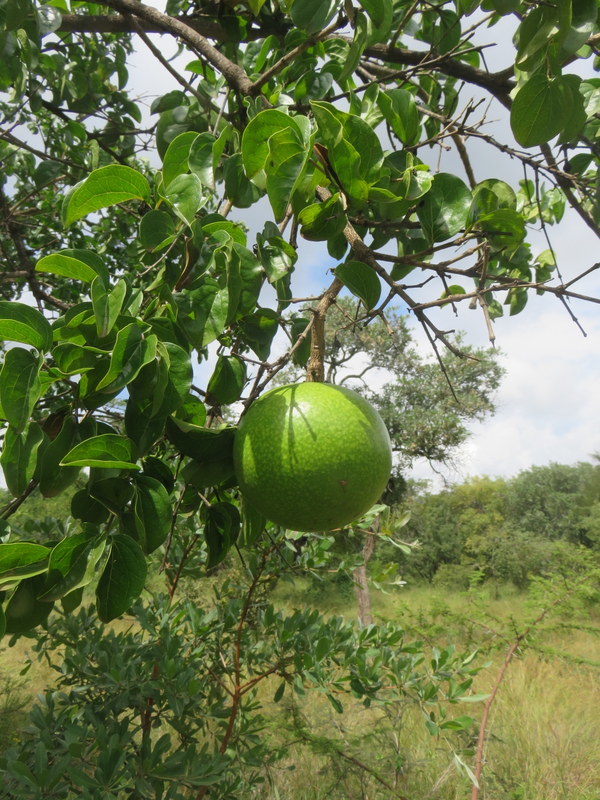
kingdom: Plantae
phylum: Tracheophyta
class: Magnoliopsida
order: Gentianales
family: Loganiaceae
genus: Strychnos
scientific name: Strychnos spinosa
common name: Natal orange
